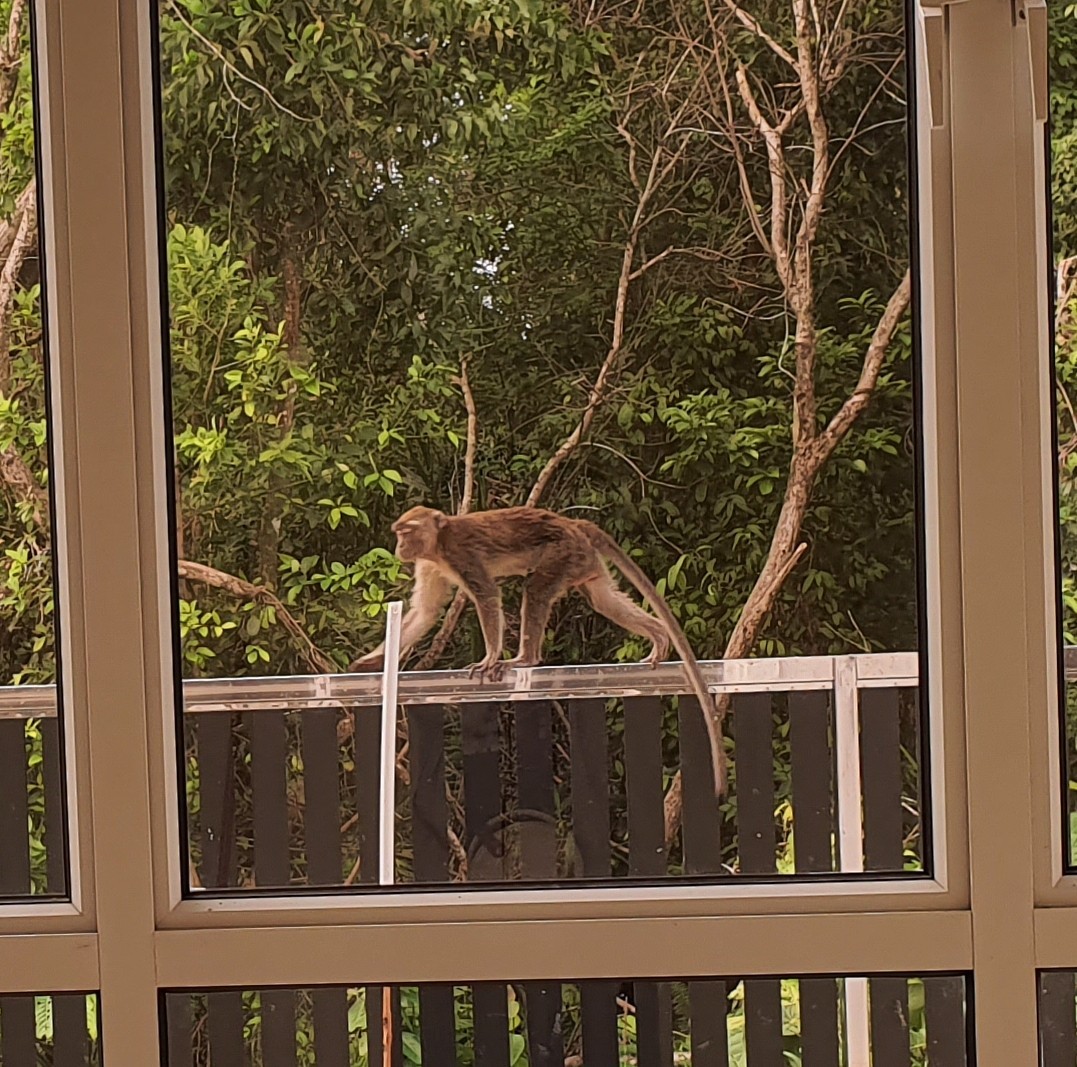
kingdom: Animalia
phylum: Chordata
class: Mammalia
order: Primates
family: Cercopithecidae
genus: Macaca
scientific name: Macaca fascicularis
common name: Crab-eating macaque
